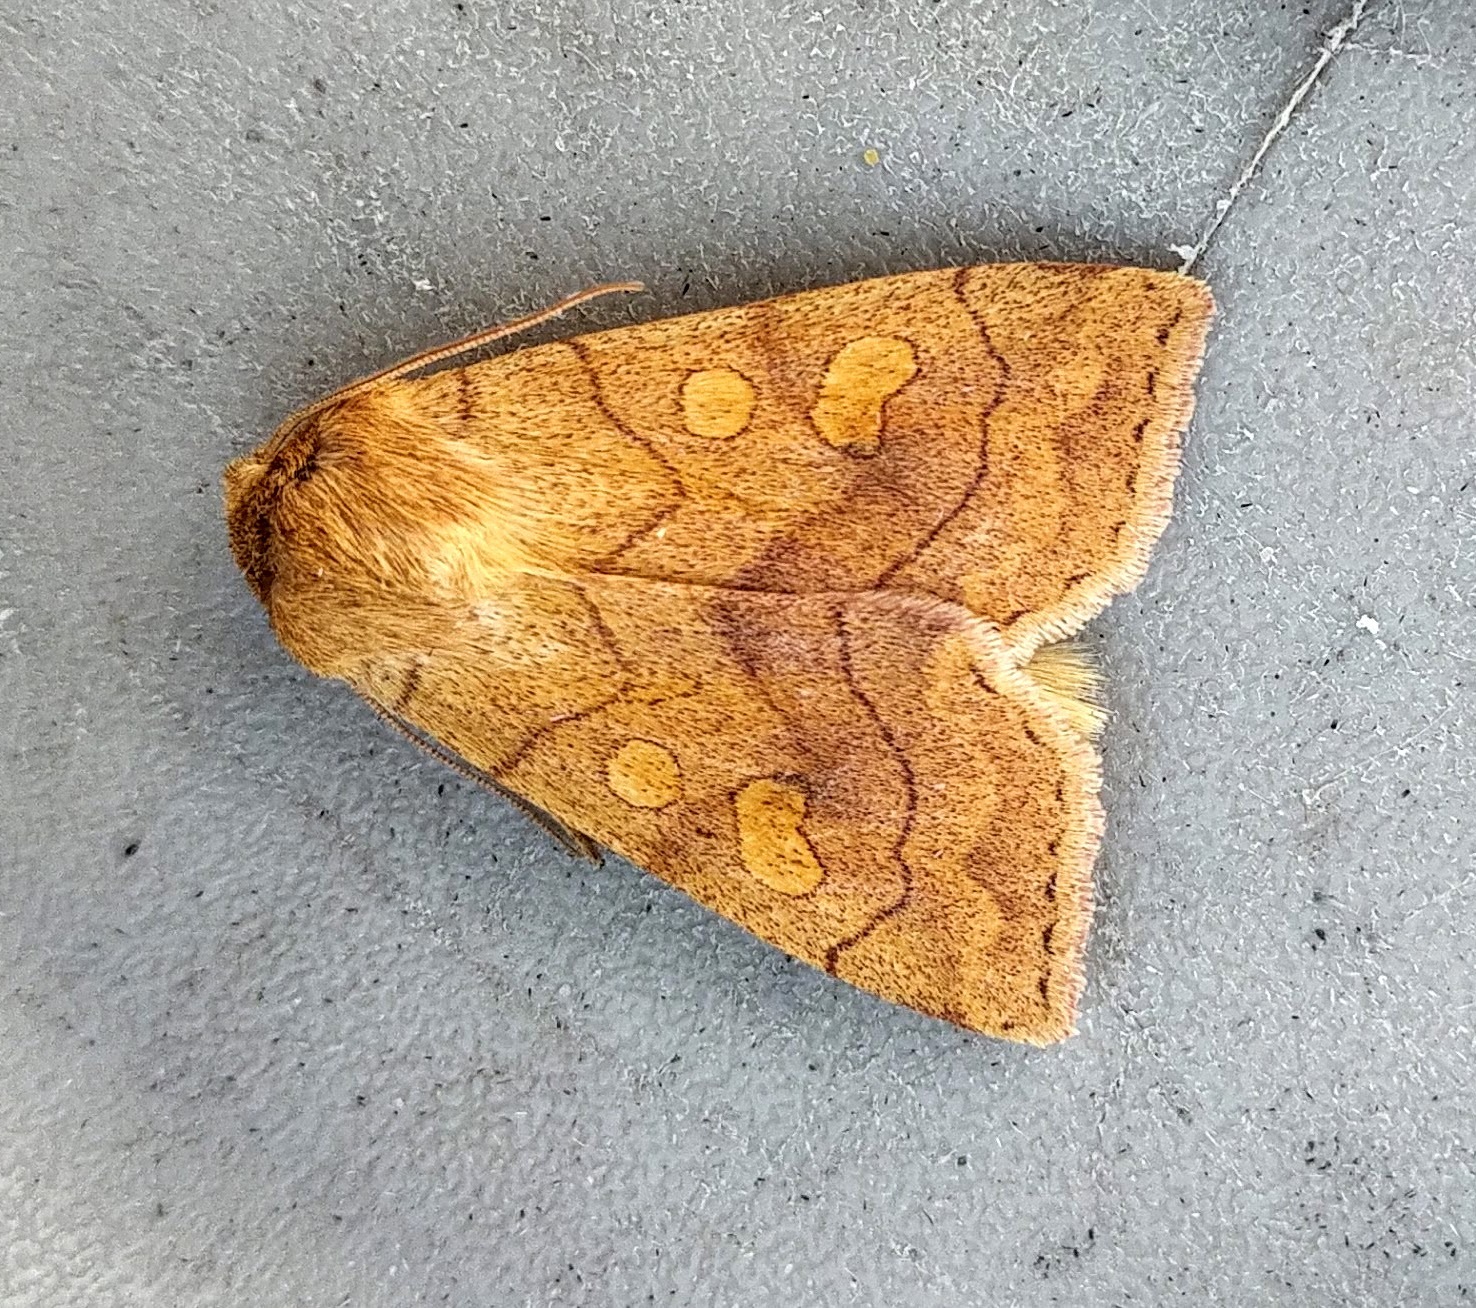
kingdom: Animalia
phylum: Arthropoda
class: Insecta
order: Lepidoptera
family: Noctuidae
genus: Enargia
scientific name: Enargia decolor
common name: Aspen twoleaf tier moth
